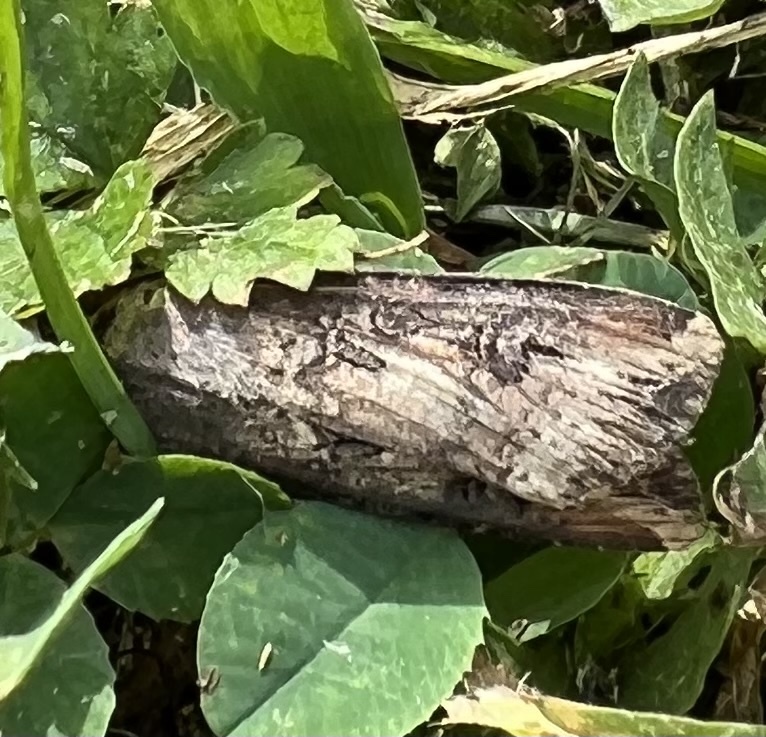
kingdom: Animalia
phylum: Arthropoda
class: Insecta
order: Lepidoptera
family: Noctuidae
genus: Agrotis
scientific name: Agrotis ipsilon
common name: Dark sword-grass
